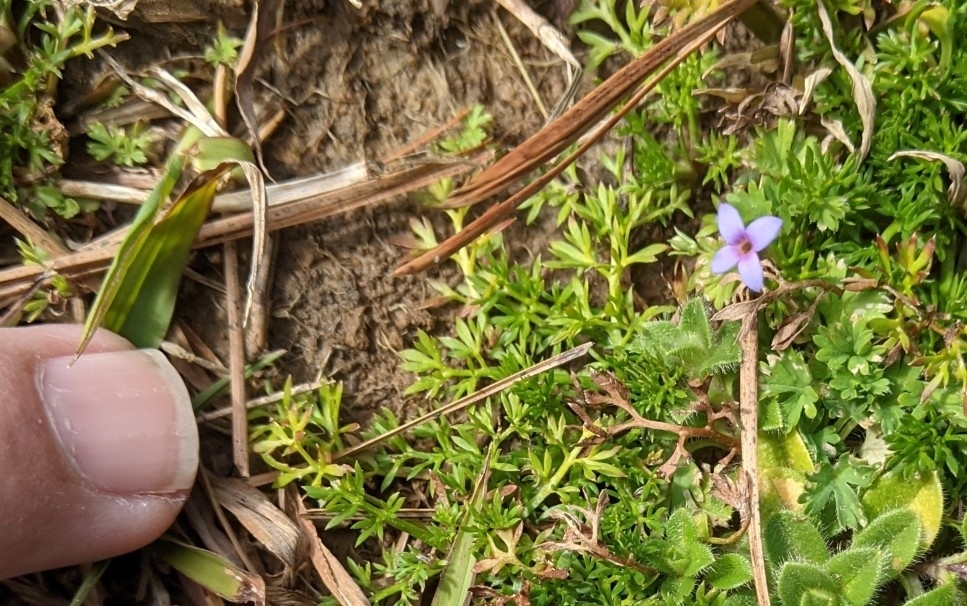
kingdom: Plantae
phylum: Tracheophyta
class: Magnoliopsida
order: Gentianales
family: Rubiaceae
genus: Houstonia
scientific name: Houstonia pusilla
